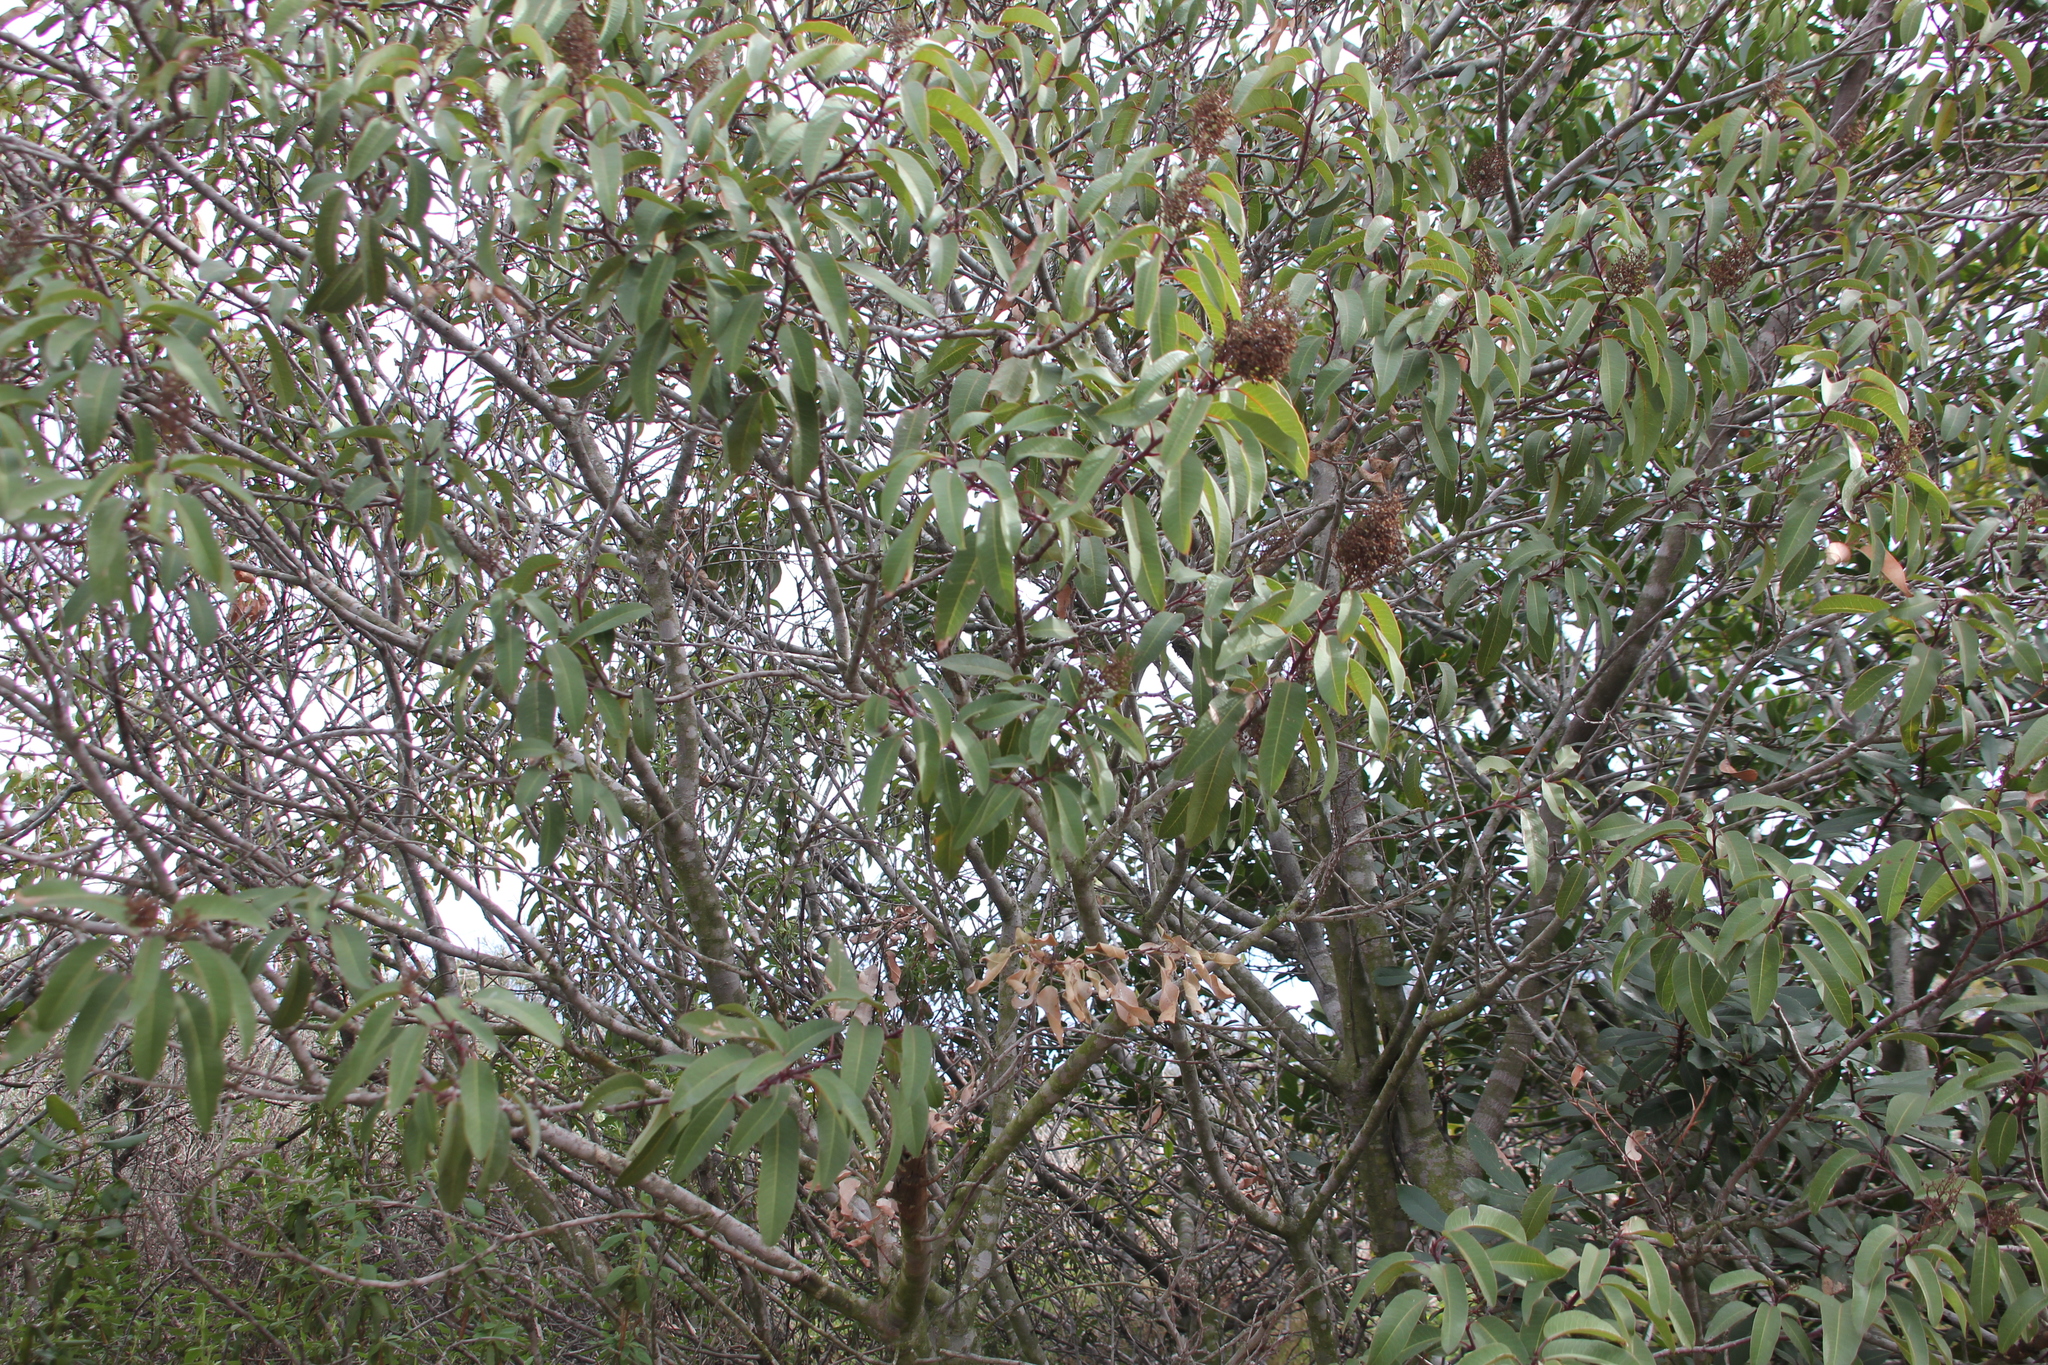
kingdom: Plantae
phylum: Tracheophyta
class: Magnoliopsida
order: Sapindales
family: Anacardiaceae
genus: Malosma
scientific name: Malosma laurina
